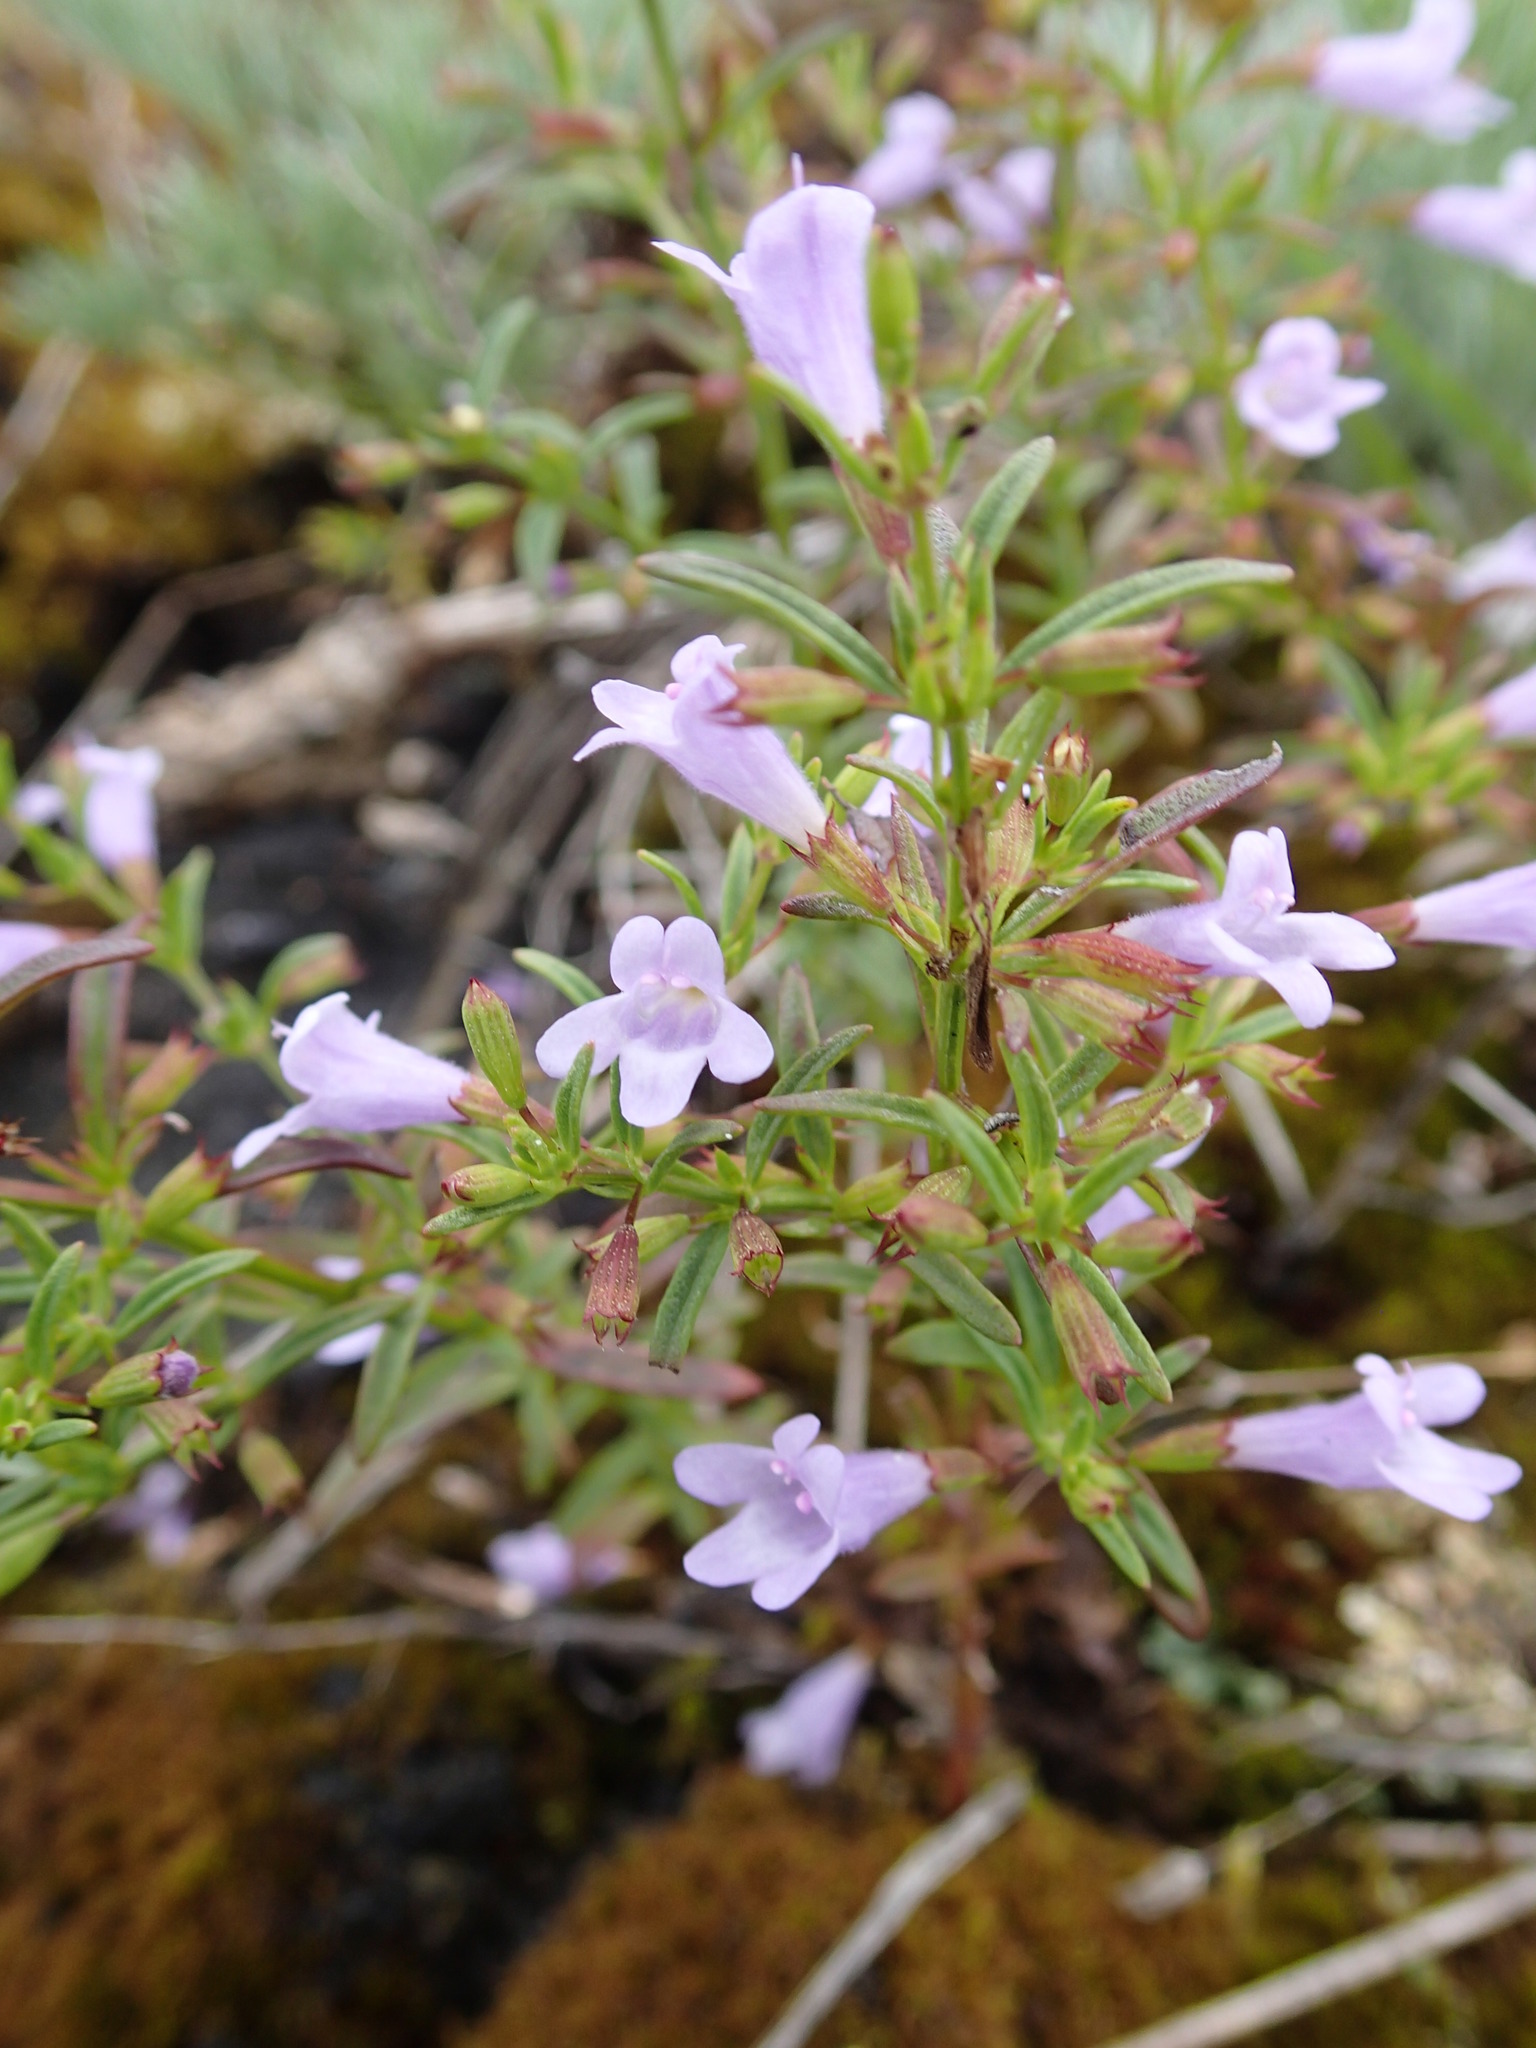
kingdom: Plantae
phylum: Tracheophyta
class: Magnoliopsida
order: Lamiales
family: Lamiaceae
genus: Clinopodium
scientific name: Clinopodium arkansanum
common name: Limestone calamint
